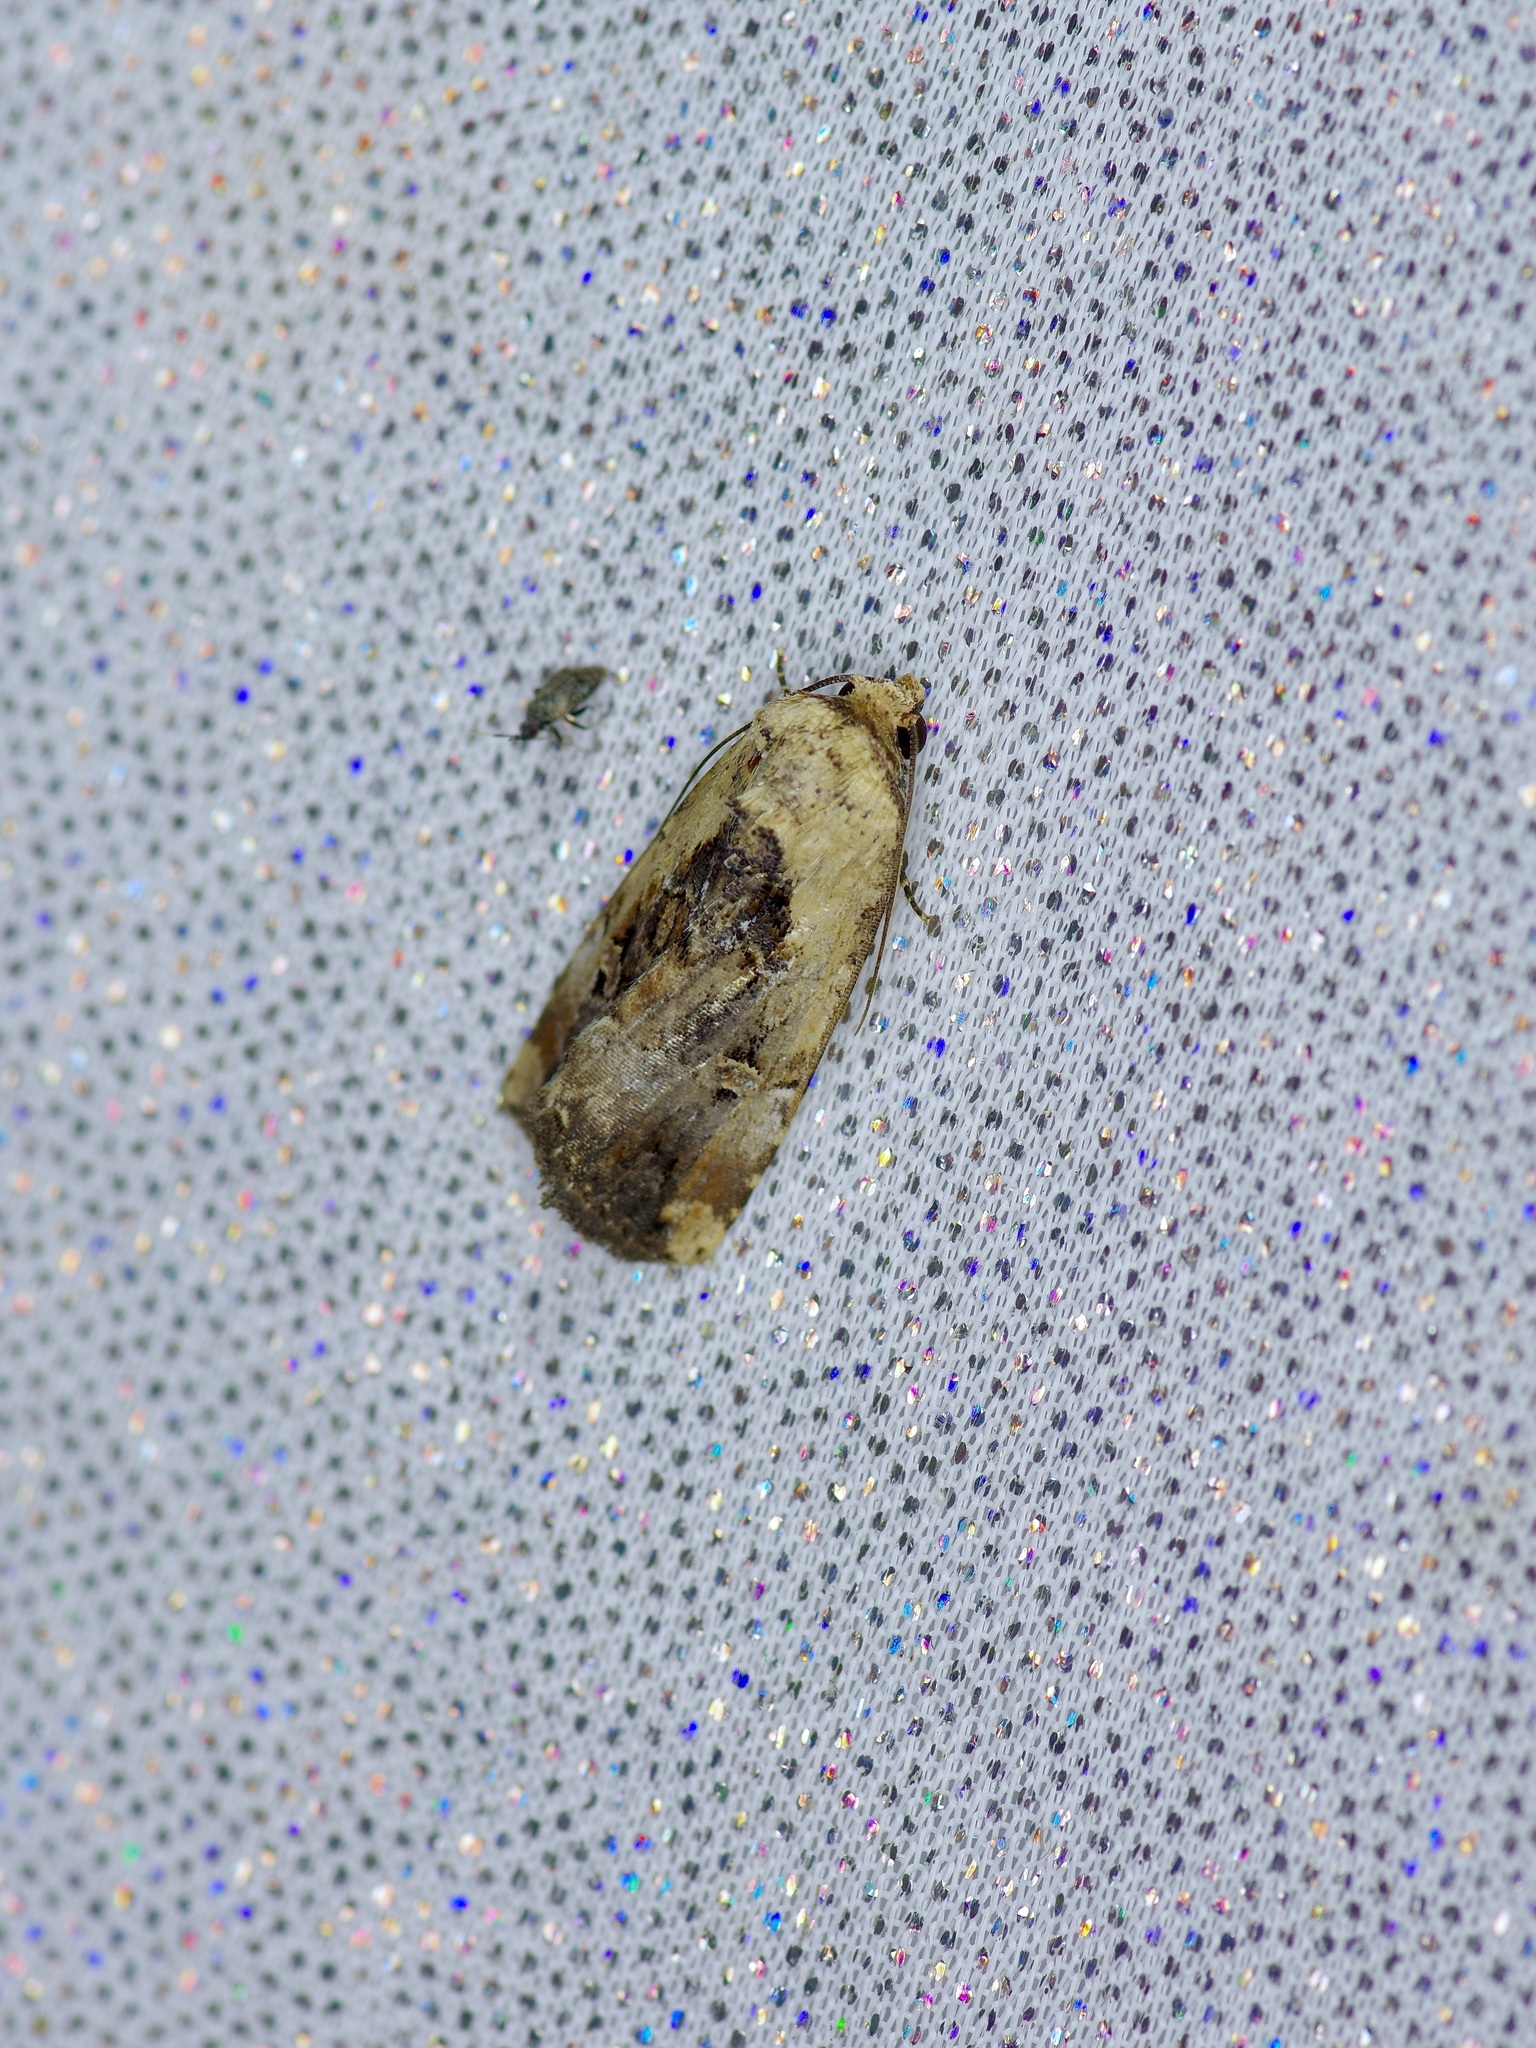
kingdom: Animalia
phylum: Arthropoda
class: Insecta
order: Lepidoptera
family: Noctuidae
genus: Elaphria
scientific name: Elaphria chalcedonia
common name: Chalcedony midget
